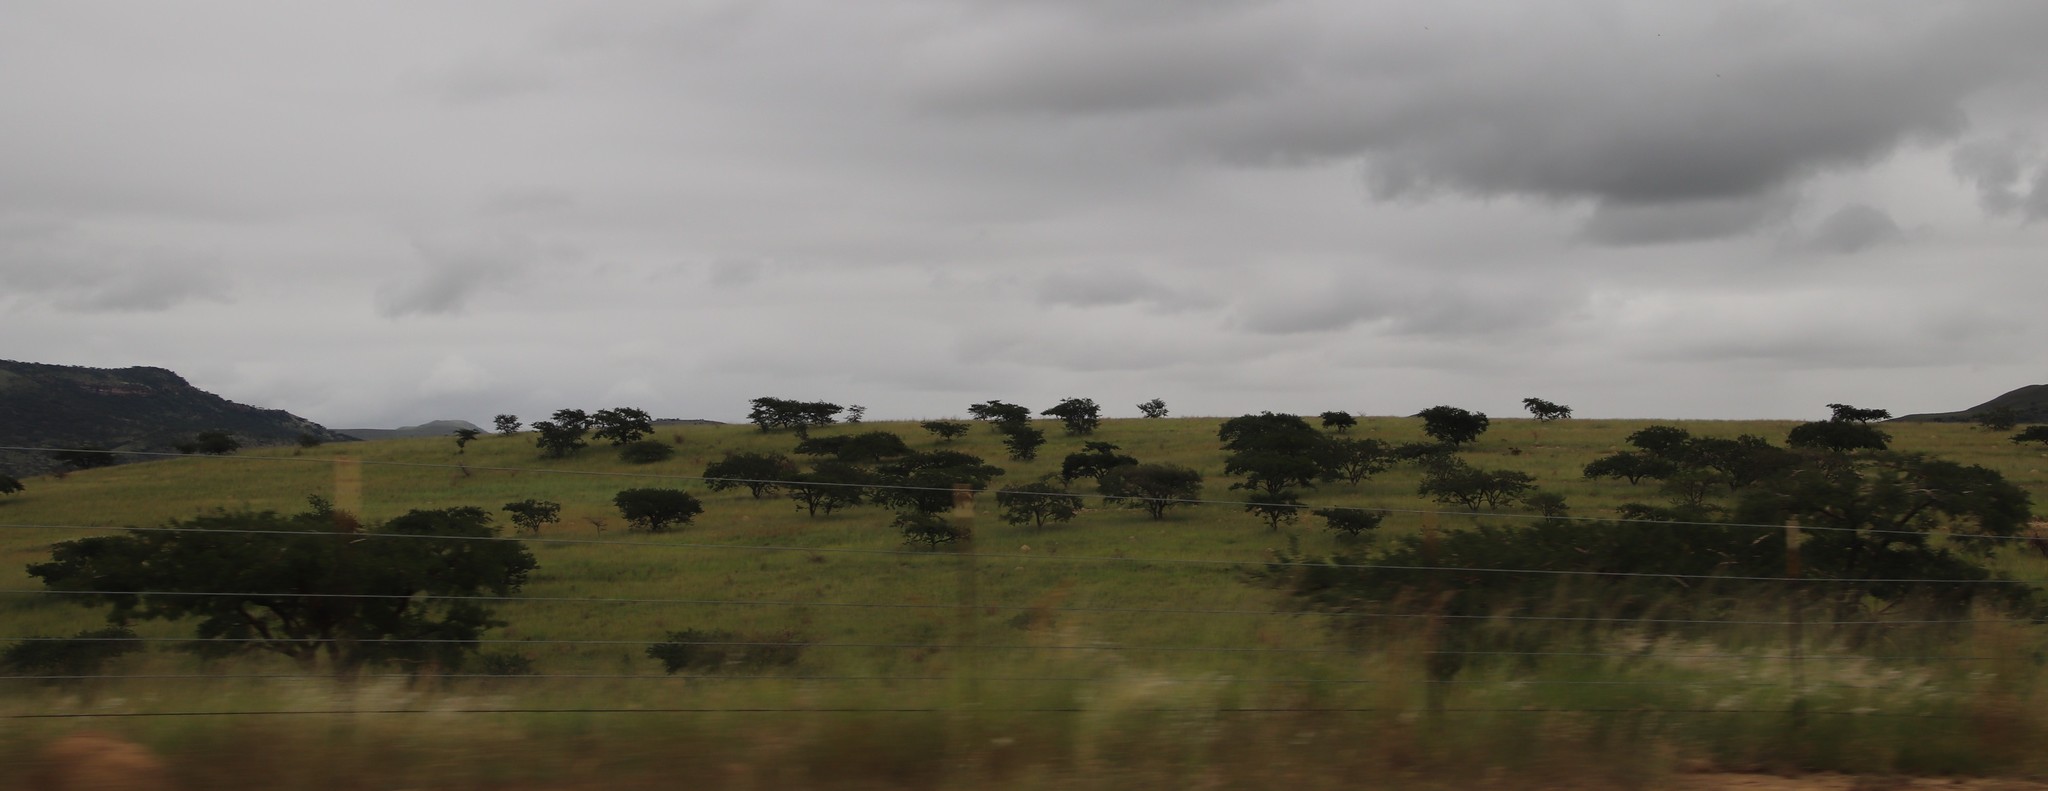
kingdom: Plantae
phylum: Tracheophyta
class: Magnoliopsida
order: Asterales
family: Asteraceae
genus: Cosmos
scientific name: Cosmos bipinnatus
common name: Garden cosmos
